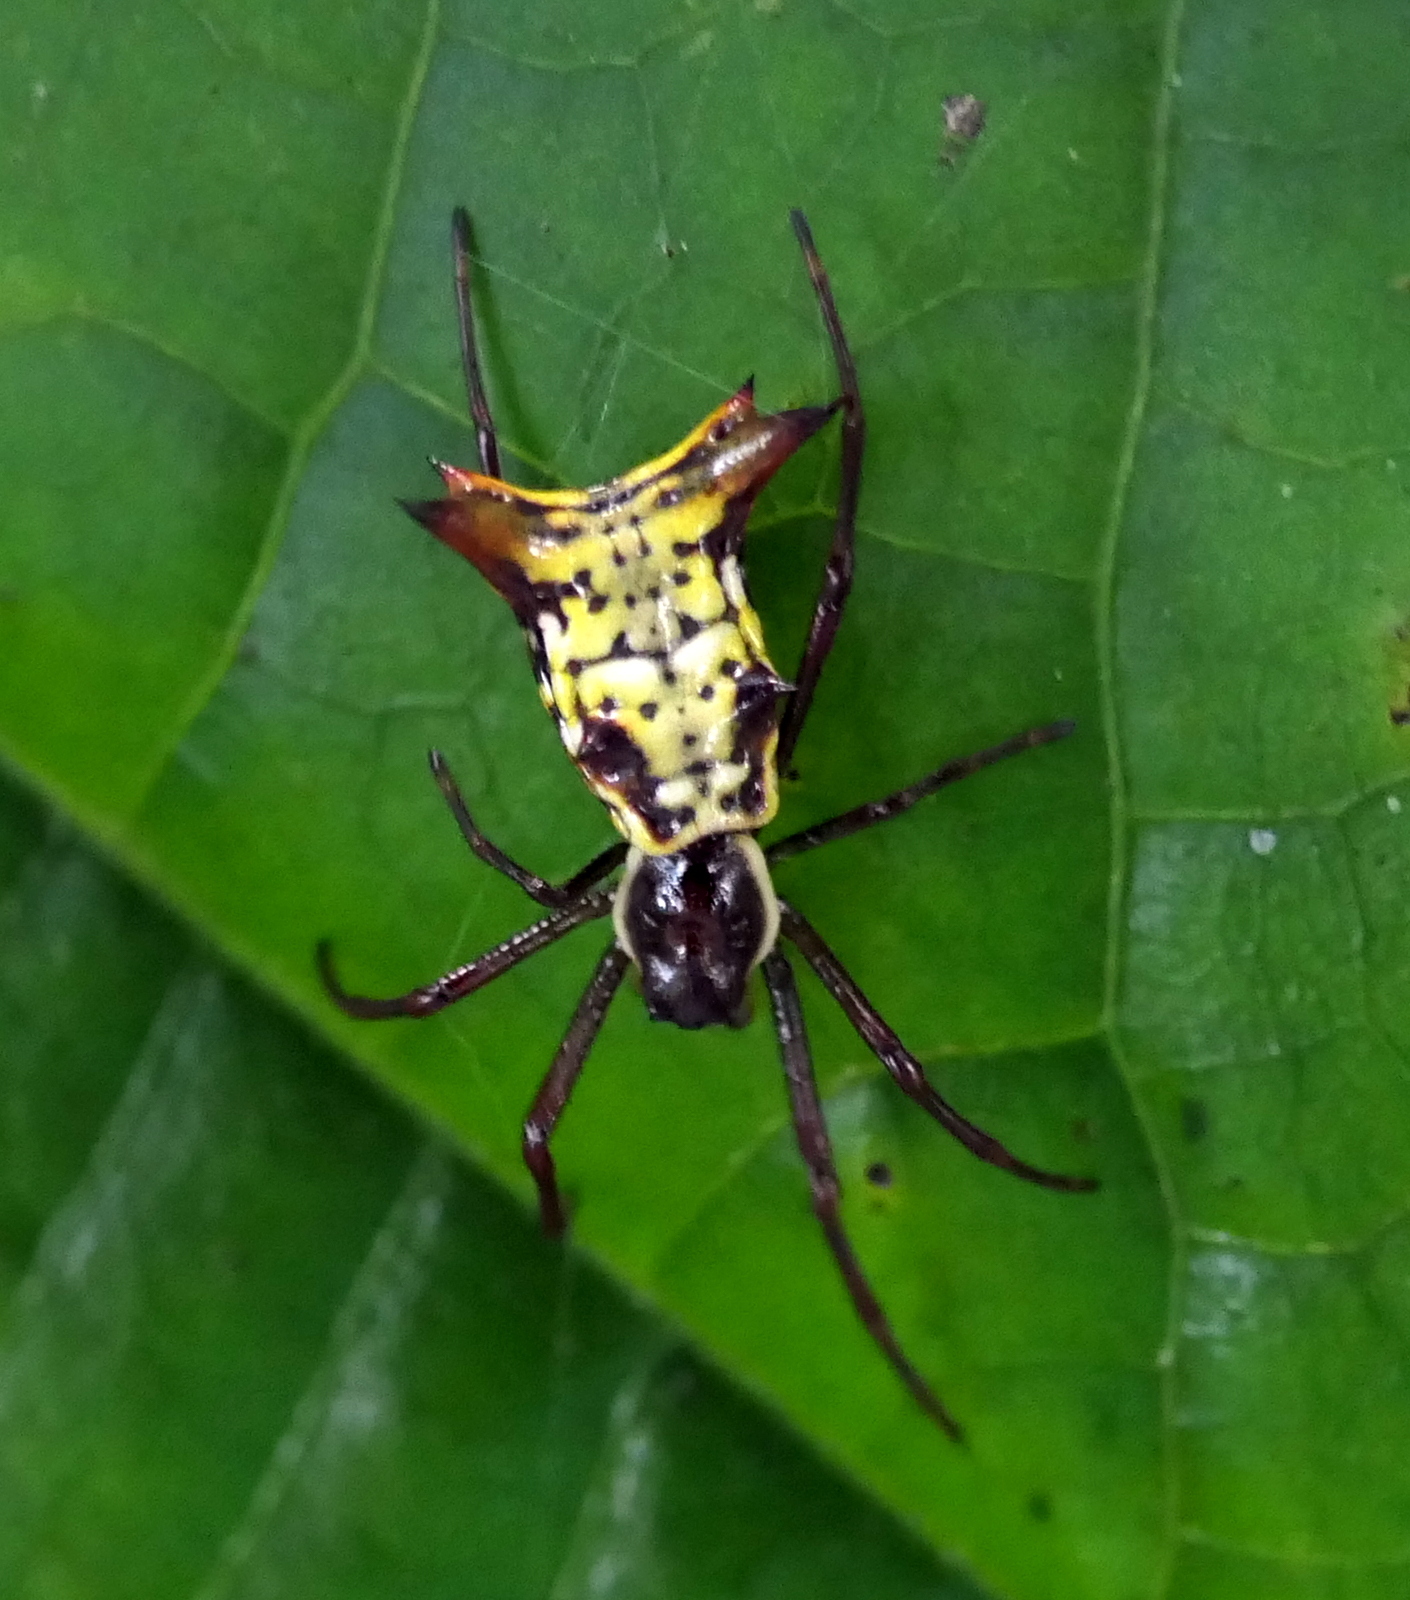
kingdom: Animalia
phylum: Arthropoda
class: Arachnida
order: Araneae
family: Araneidae
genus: Micrathena
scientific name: Micrathena fissispina
